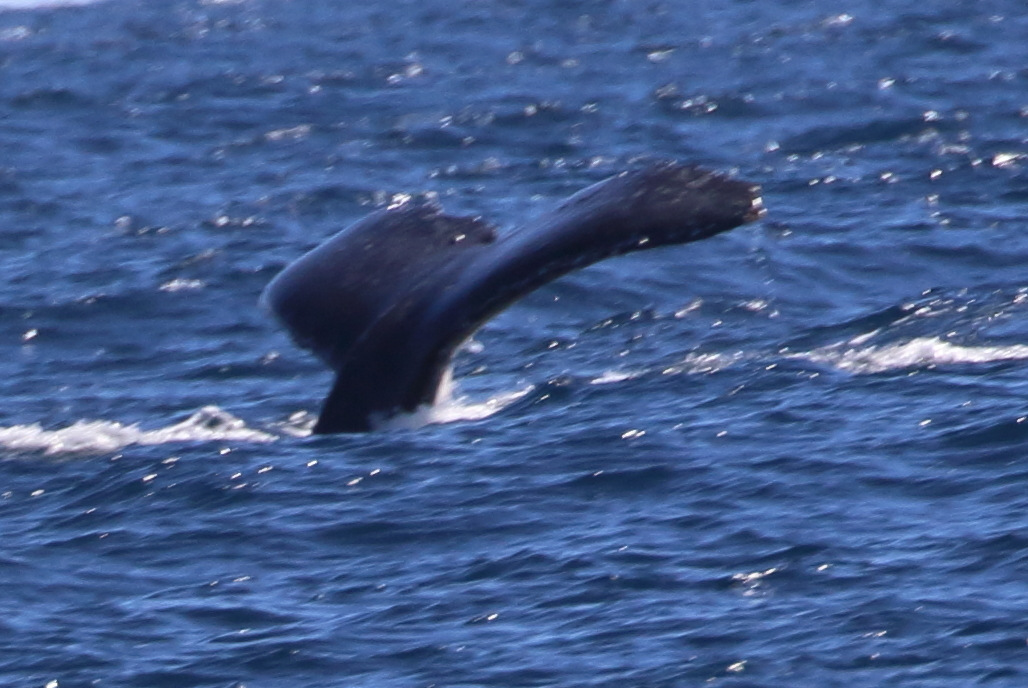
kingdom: Animalia
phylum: Chordata
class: Mammalia
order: Cetacea
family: Balaenopteridae
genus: Megaptera
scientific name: Megaptera novaeangliae
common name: Humpback whale
